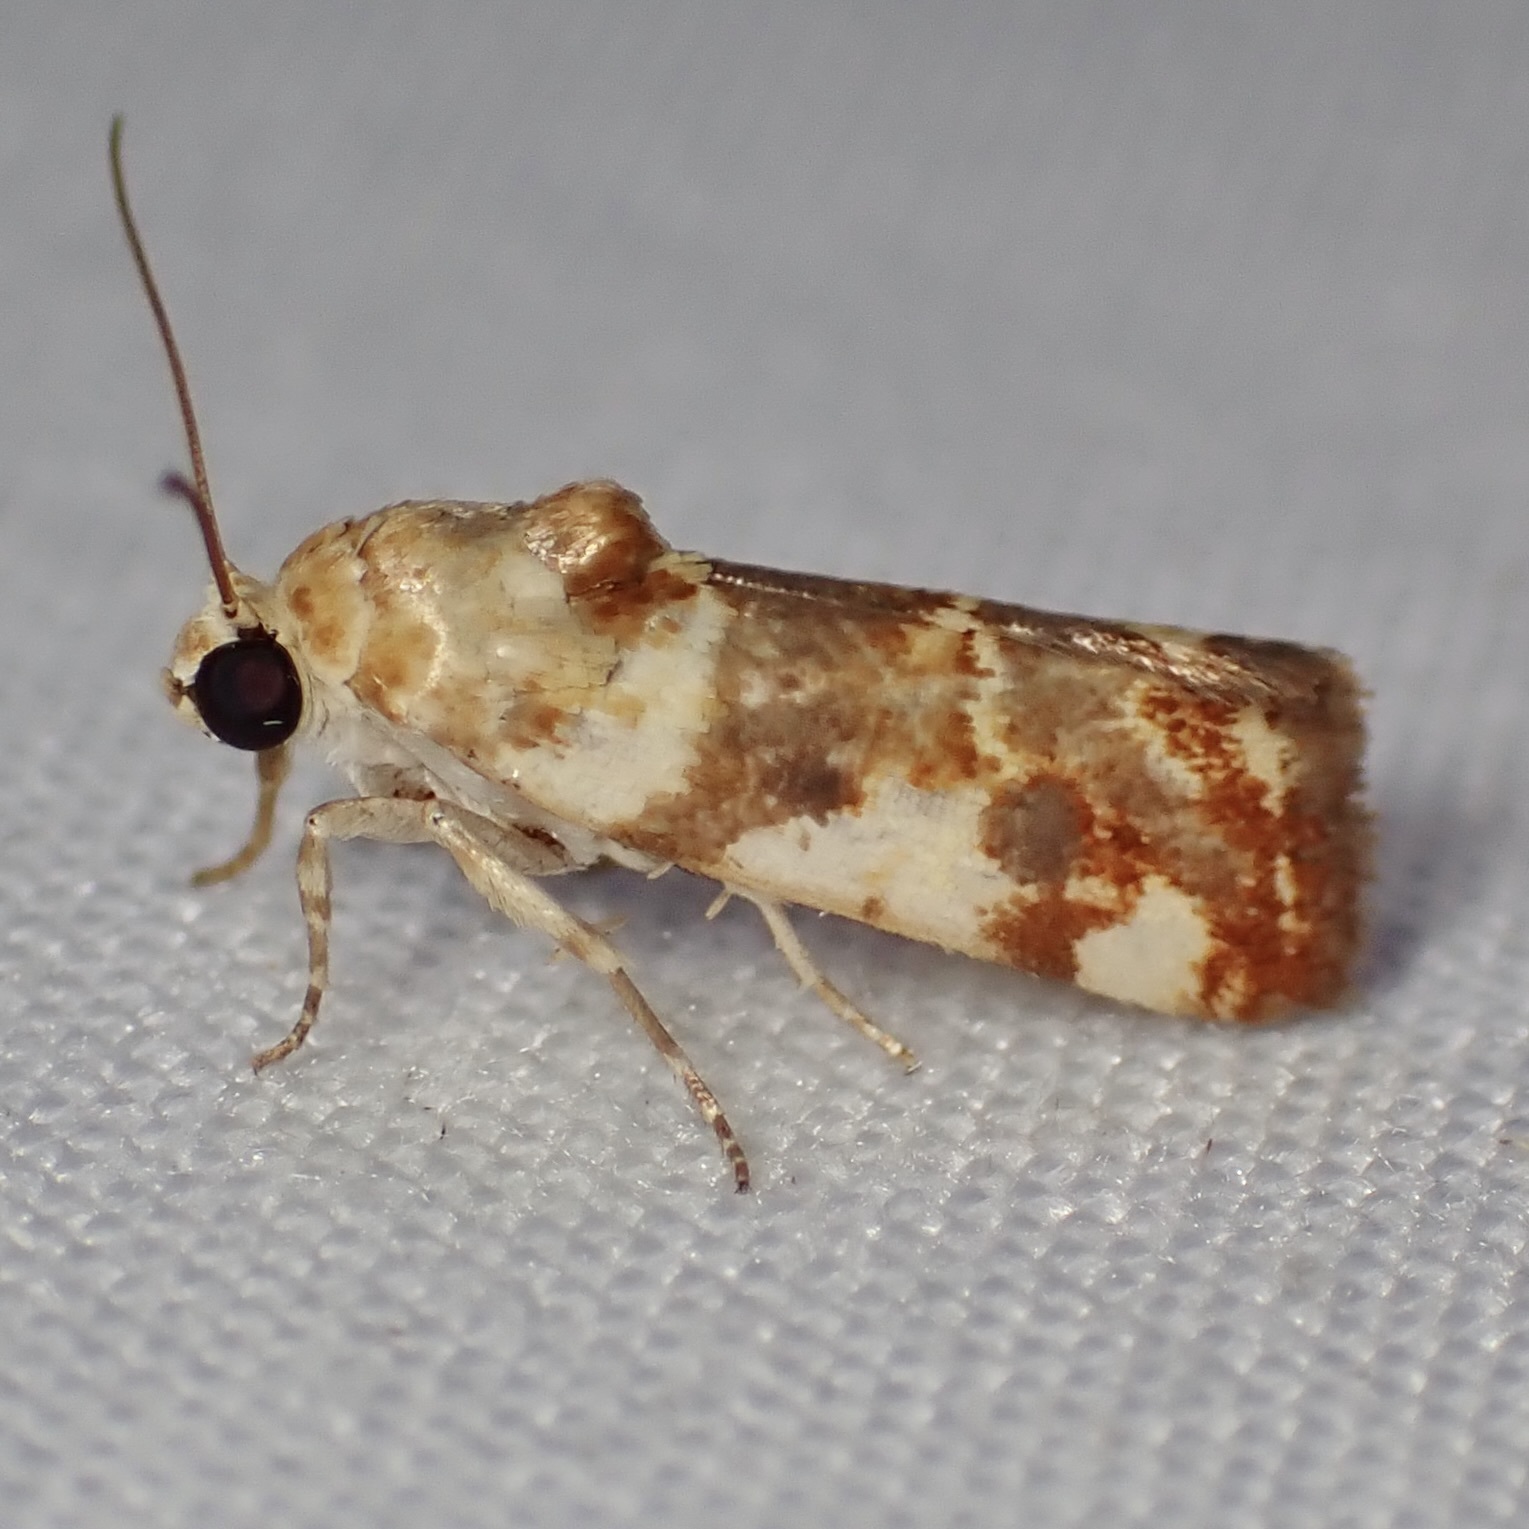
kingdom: Animalia
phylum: Arthropoda
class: Insecta
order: Lepidoptera
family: Noctuidae
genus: Acontia
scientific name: Acontia obatra
